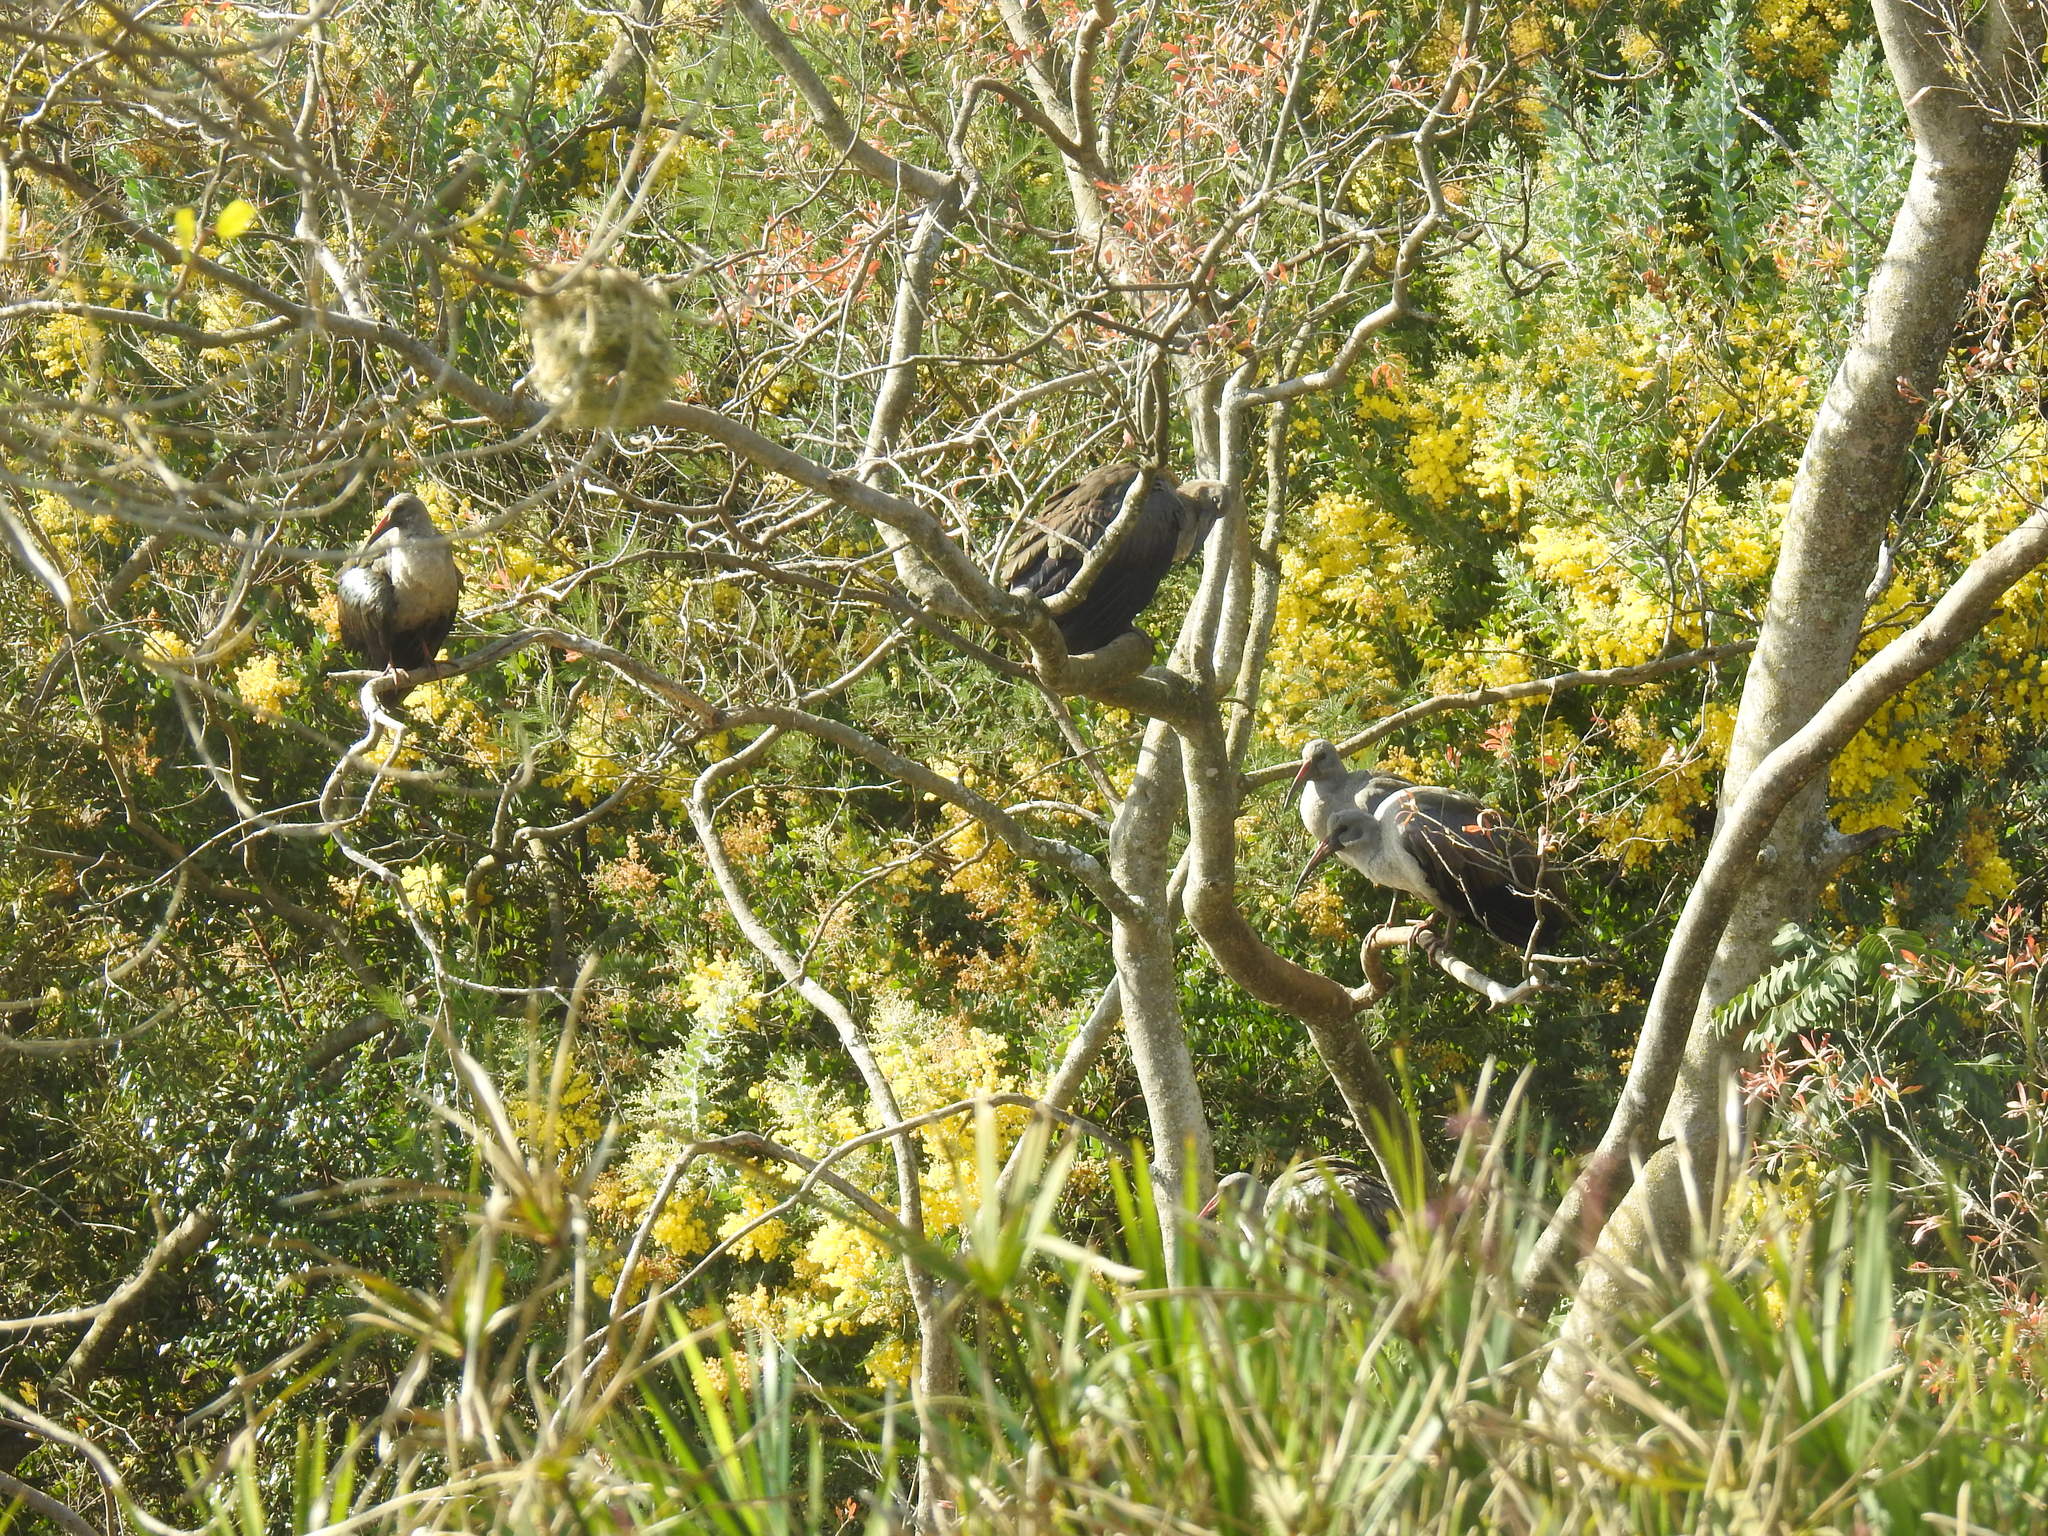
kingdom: Animalia
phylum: Chordata
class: Aves
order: Pelecaniformes
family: Threskiornithidae
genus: Bostrychia
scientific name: Bostrychia hagedash
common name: Hadada ibis
